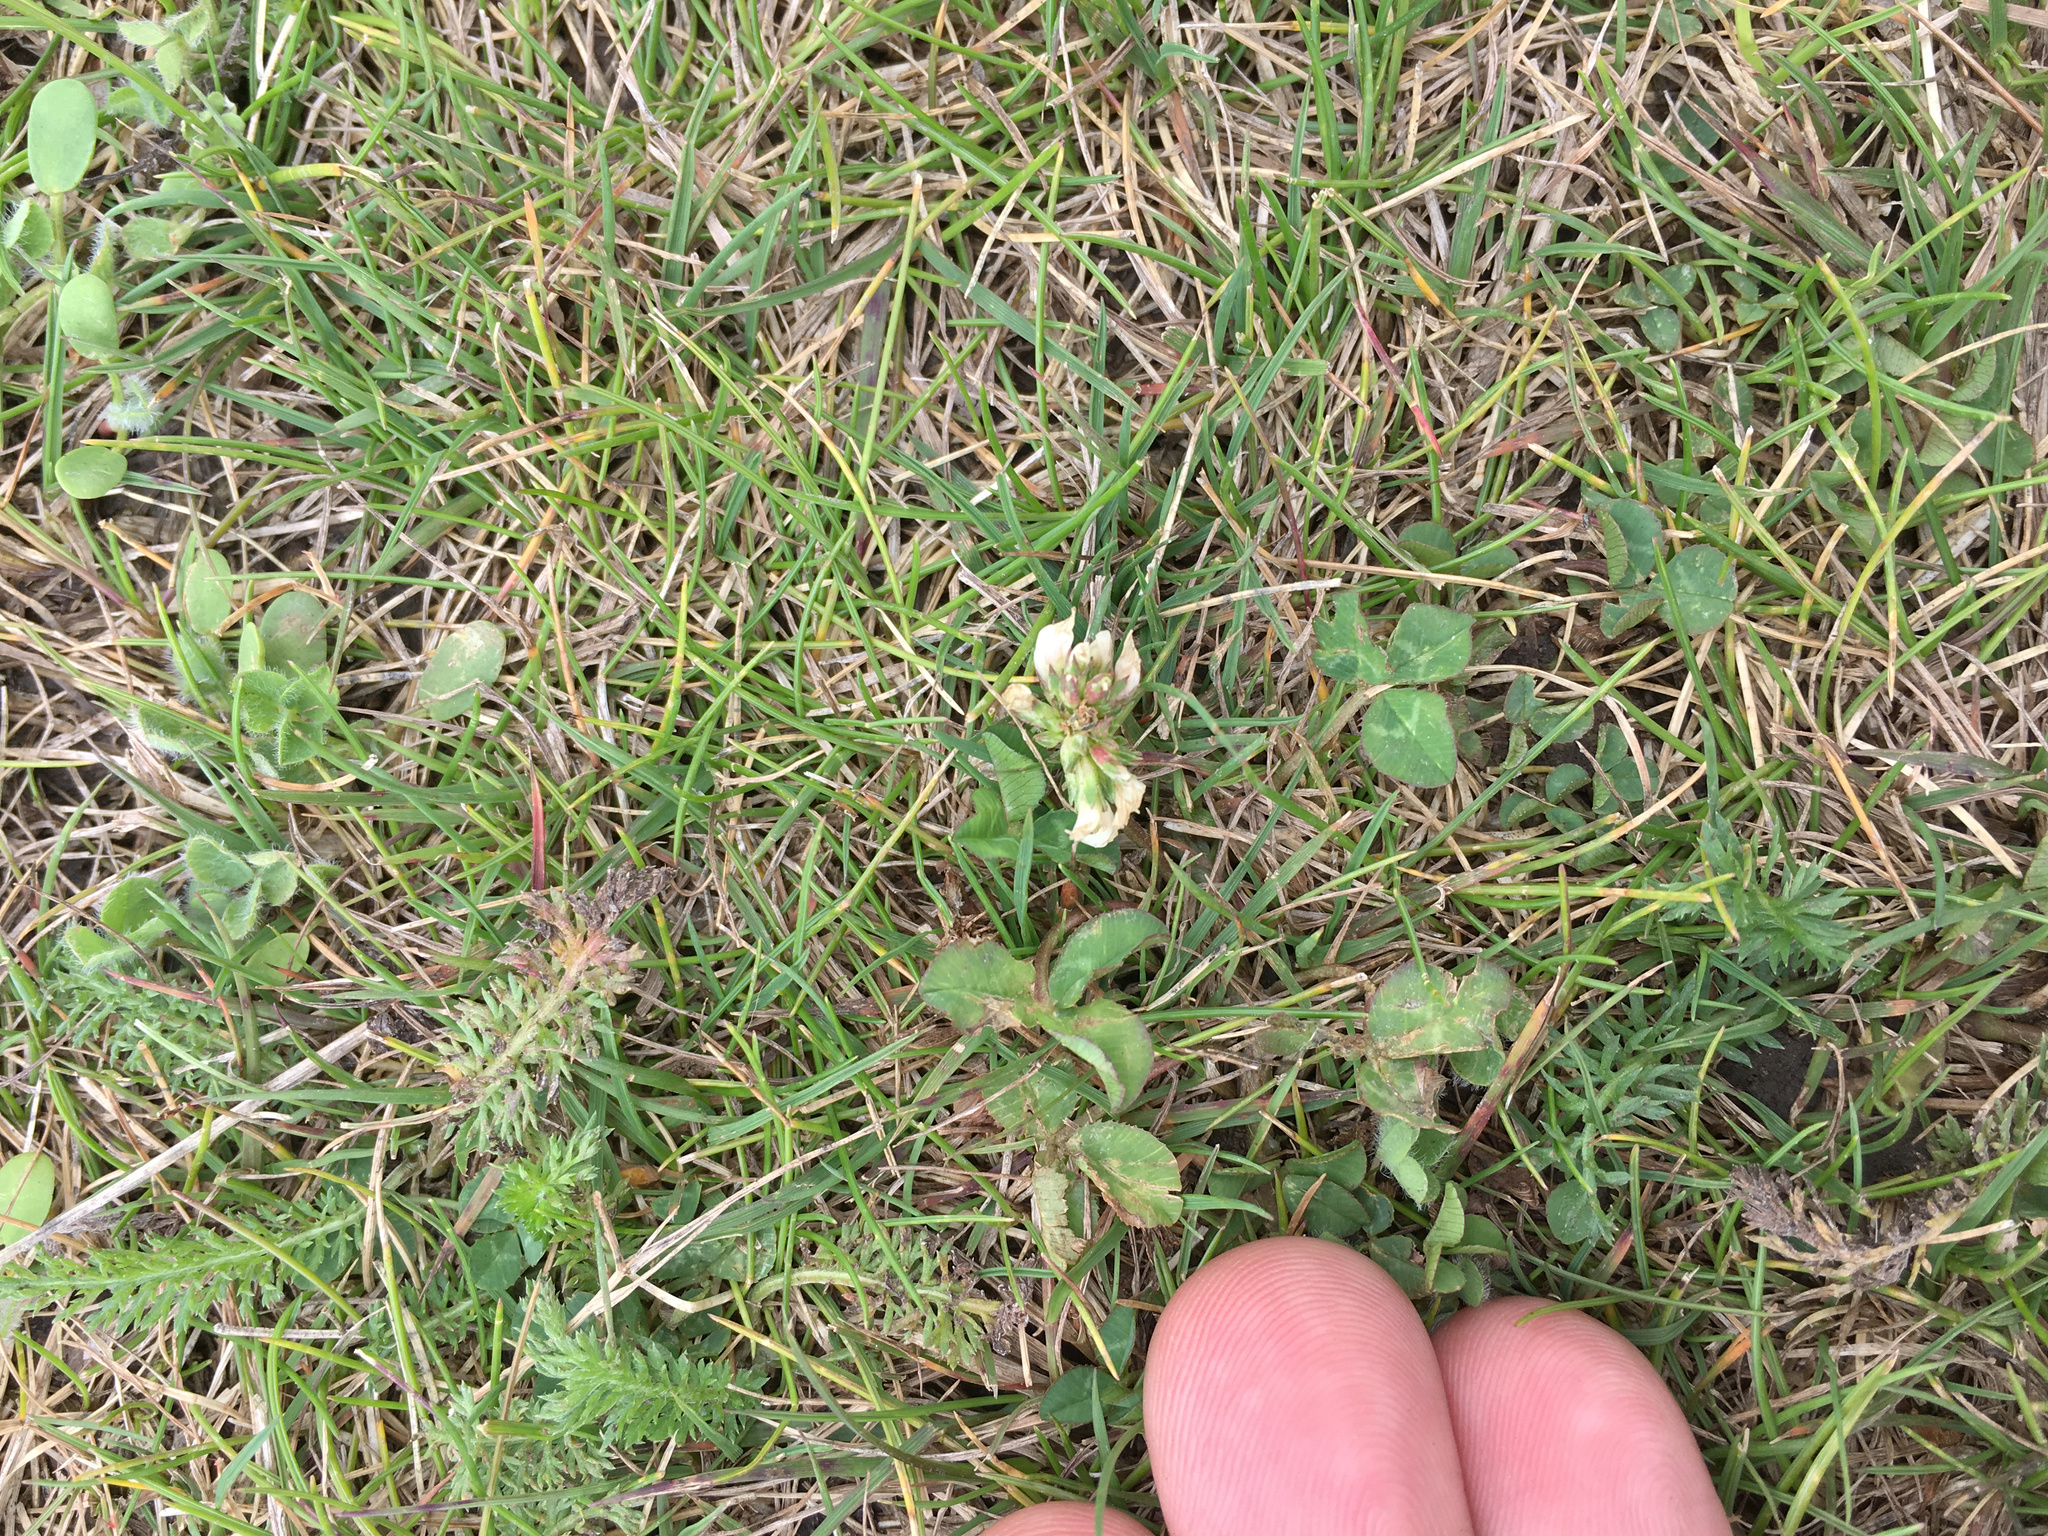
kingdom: Plantae
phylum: Tracheophyta
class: Magnoliopsida
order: Fabales
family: Fabaceae
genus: Trifolium
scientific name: Trifolium repens
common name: White clover
